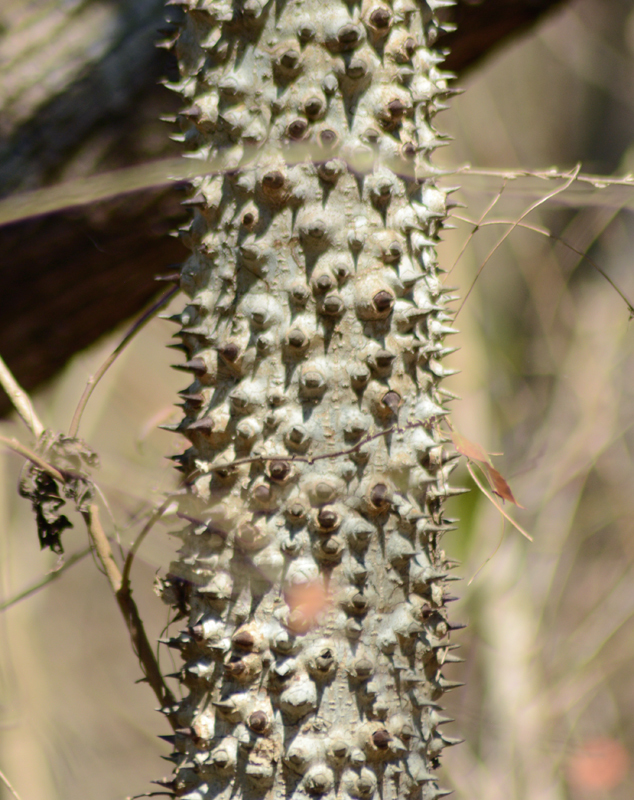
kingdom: Plantae
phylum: Tracheophyta
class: Magnoliopsida
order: Malpighiales
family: Euphorbiaceae
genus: Hura
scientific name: Hura polyandra
